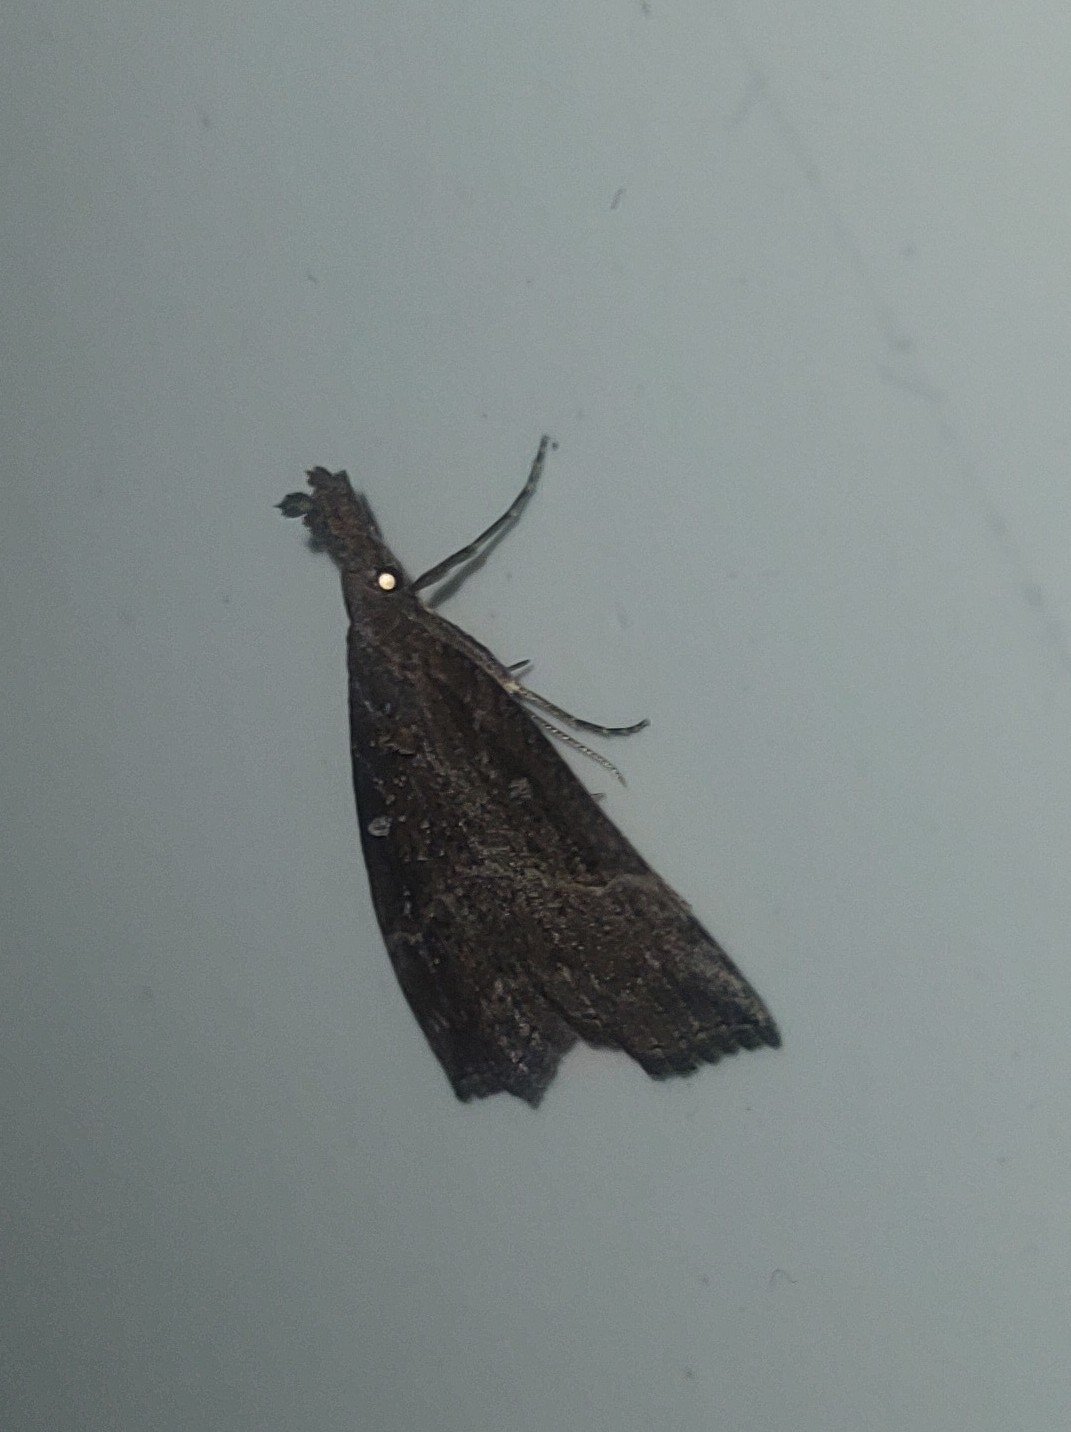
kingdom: Animalia
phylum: Arthropoda
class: Insecta
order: Lepidoptera
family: Erebidae
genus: Hypena
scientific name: Hypena rostralis
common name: Buttoned snout
